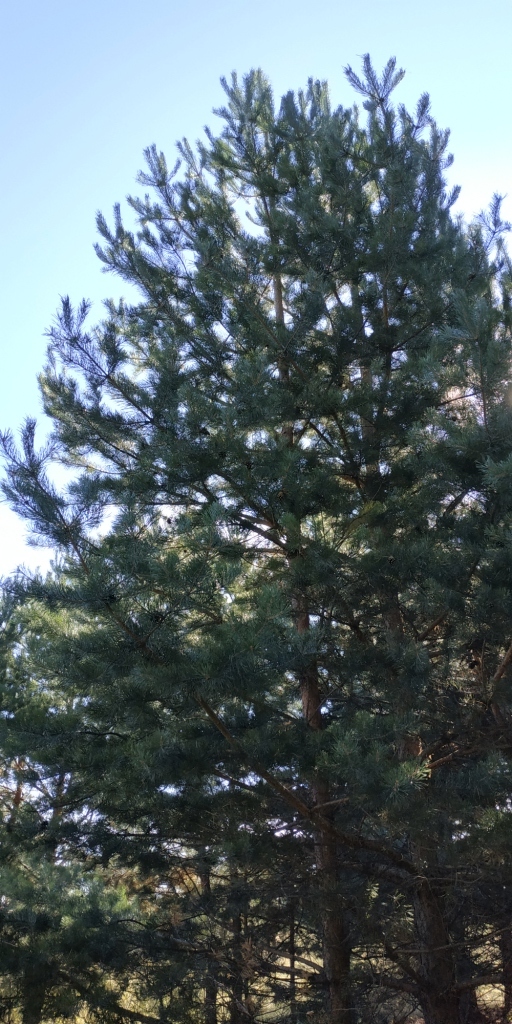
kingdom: Plantae
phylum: Tracheophyta
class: Pinopsida
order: Pinales
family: Pinaceae
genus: Pinus
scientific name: Pinus sylvestris
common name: Scots pine
